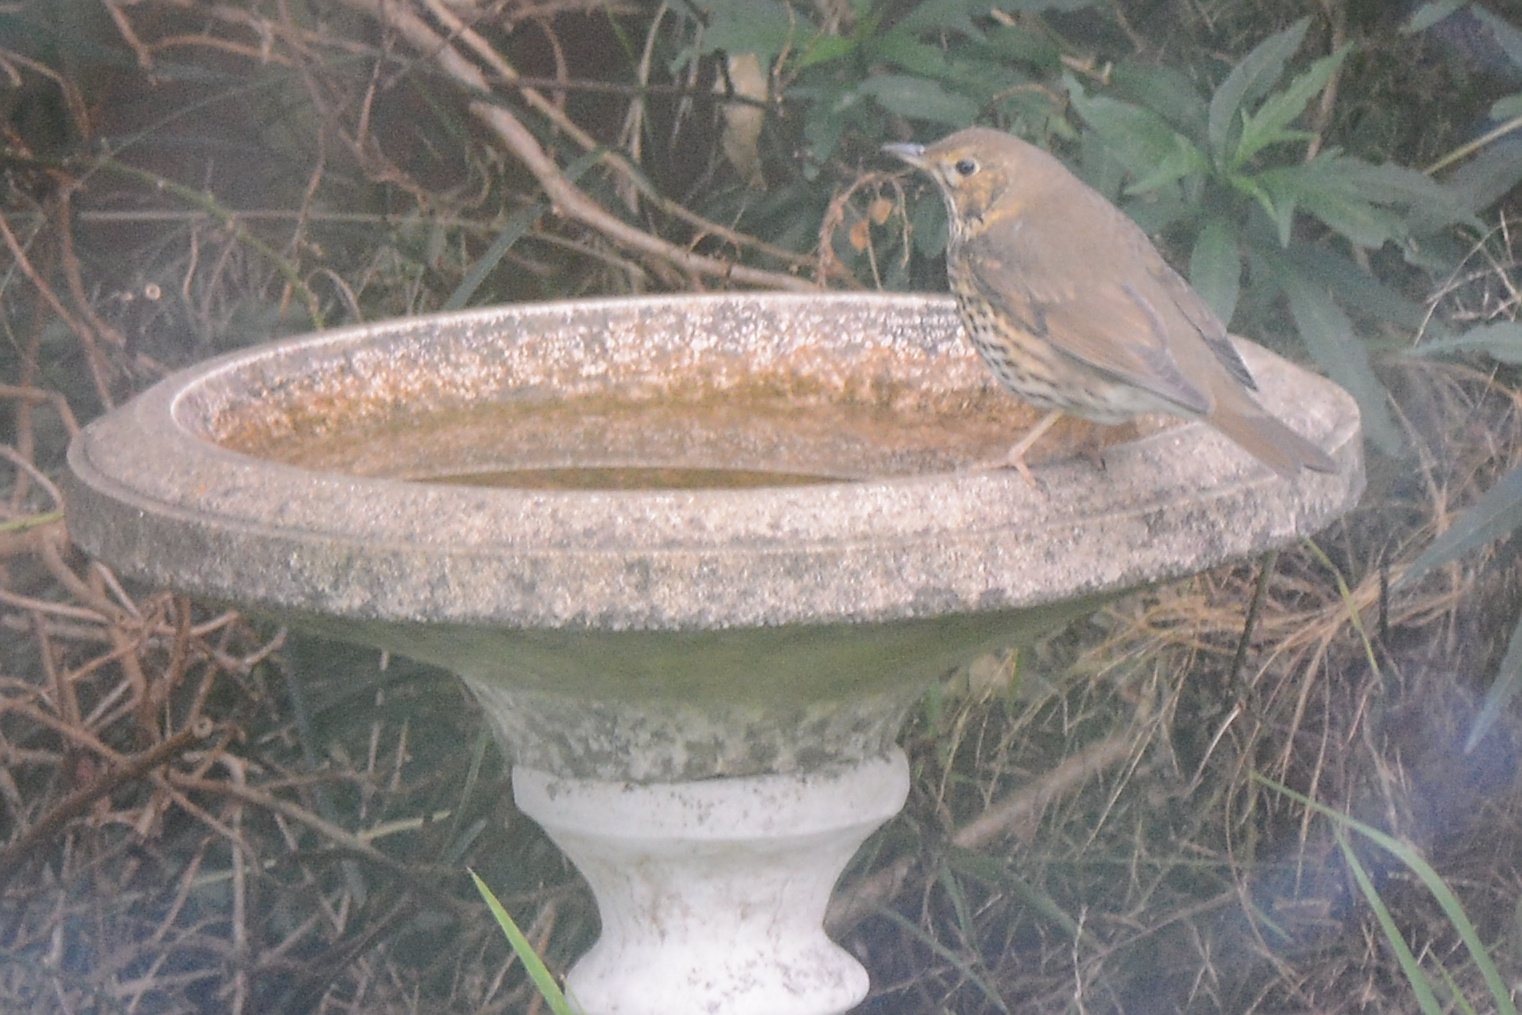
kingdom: Animalia
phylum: Chordata
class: Aves
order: Passeriformes
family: Turdidae
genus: Turdus
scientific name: Turdus philomelos
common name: Song thrush
